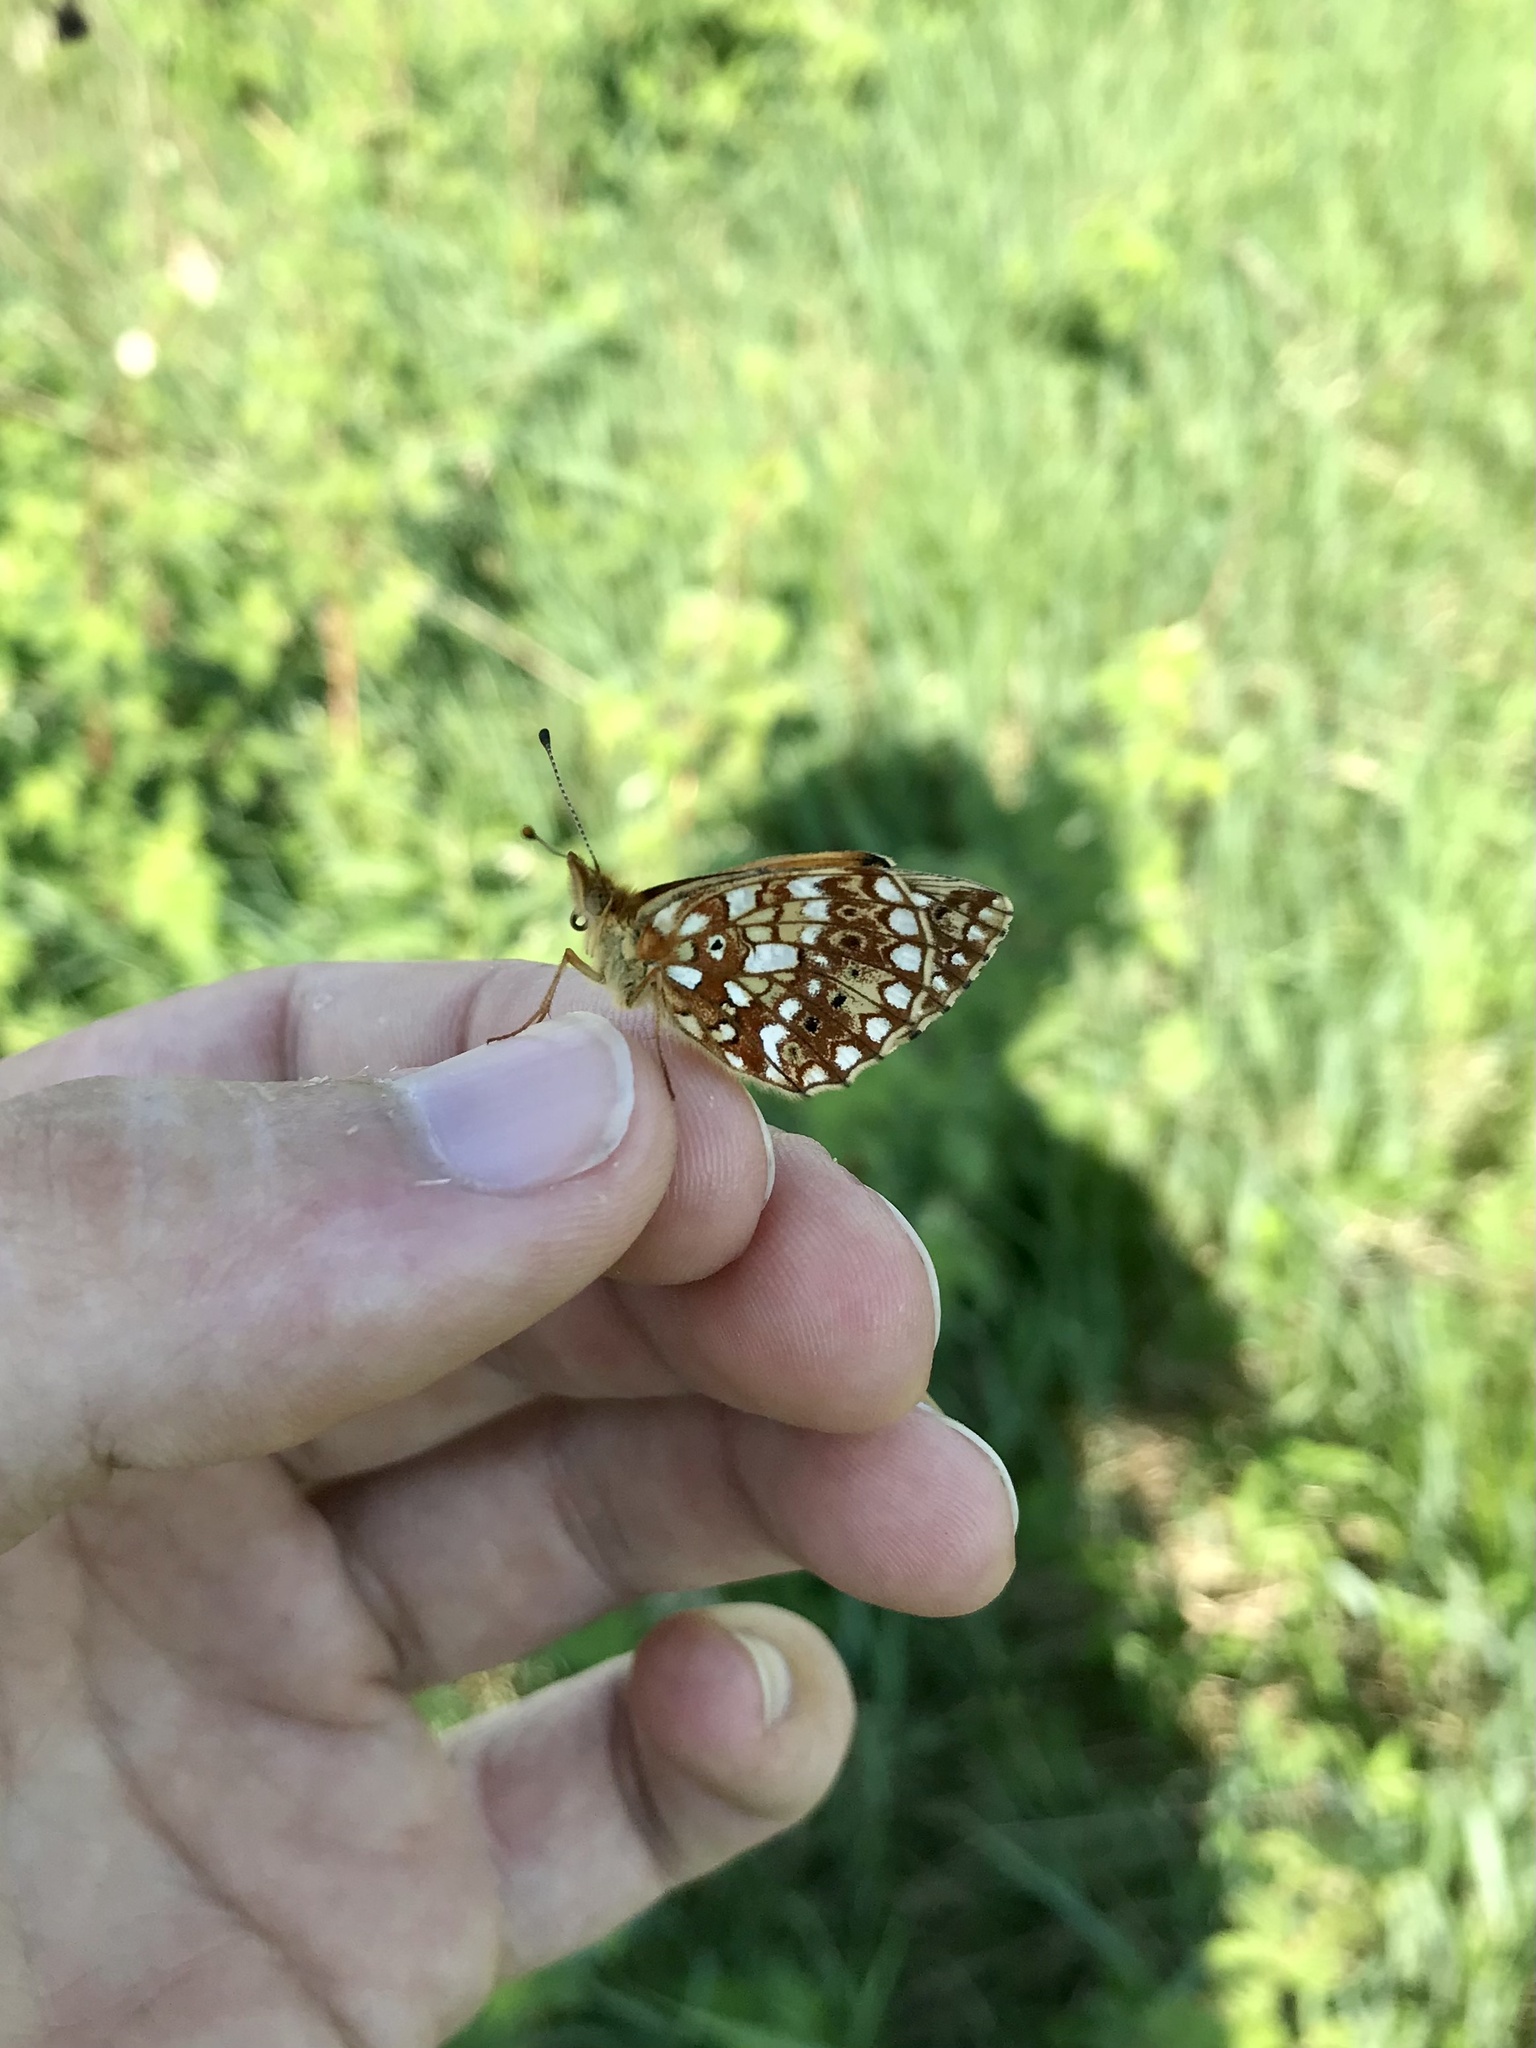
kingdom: Animalia
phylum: Arthropoda
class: Insecta
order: Lepidoptera
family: Nymphalidae
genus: Boloria
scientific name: Boloria
